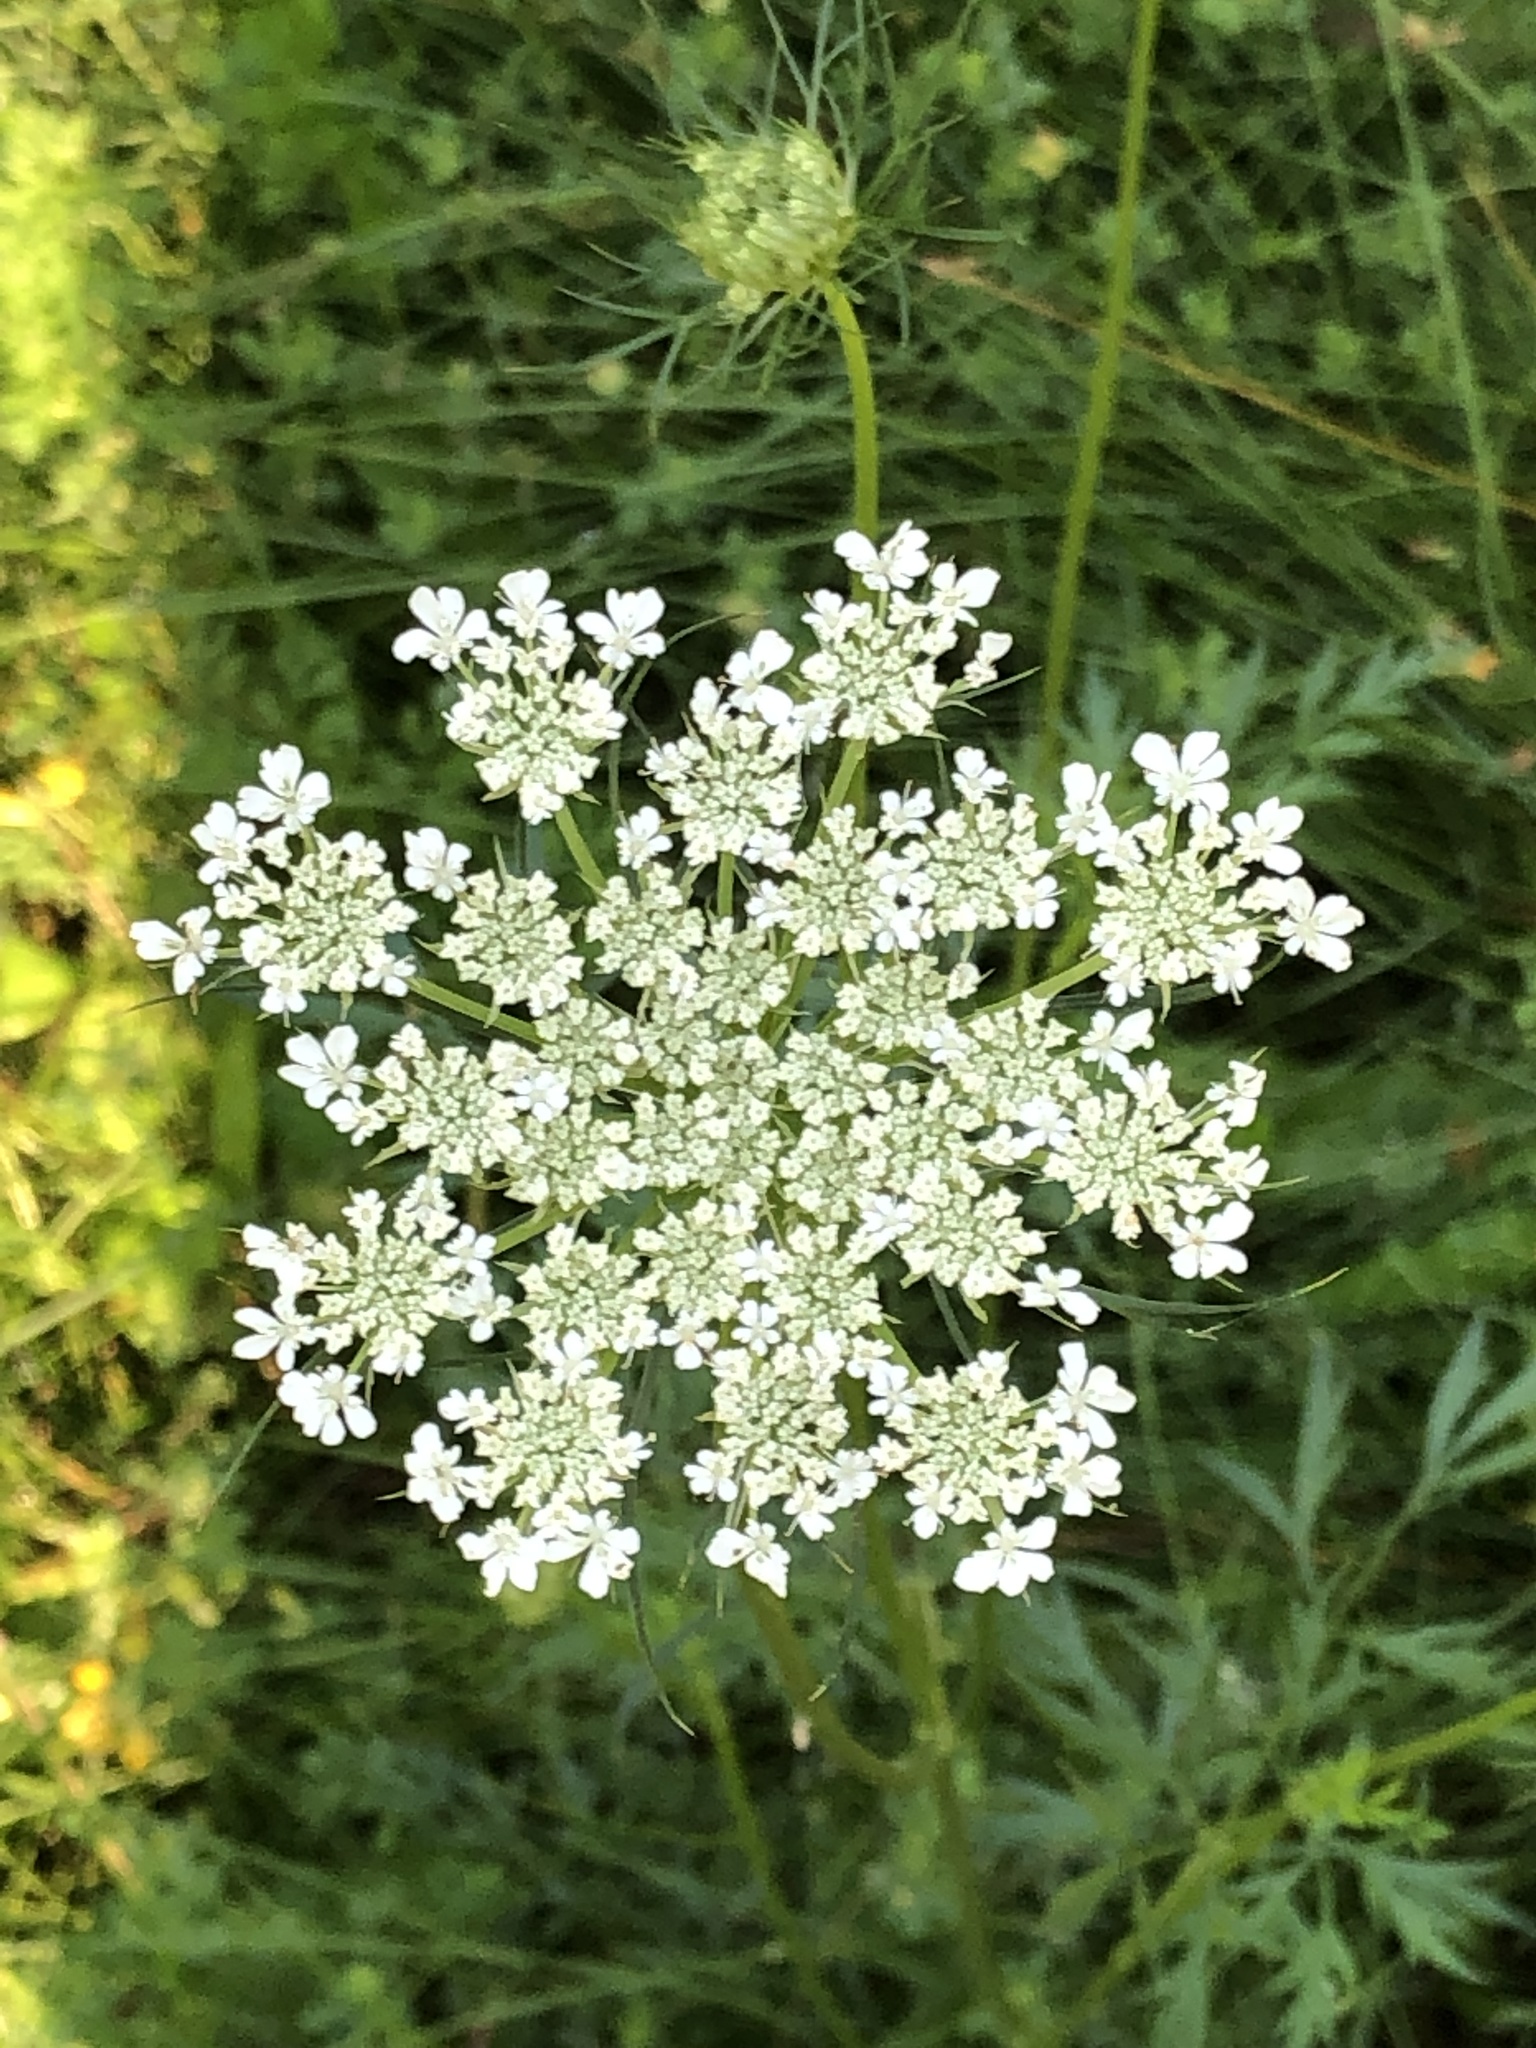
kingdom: Plantae
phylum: Tracheophyta
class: Magnoliopsida
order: Apiales
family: Apiaceae
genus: Daucus
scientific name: Daucus carota
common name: Wild carrot
